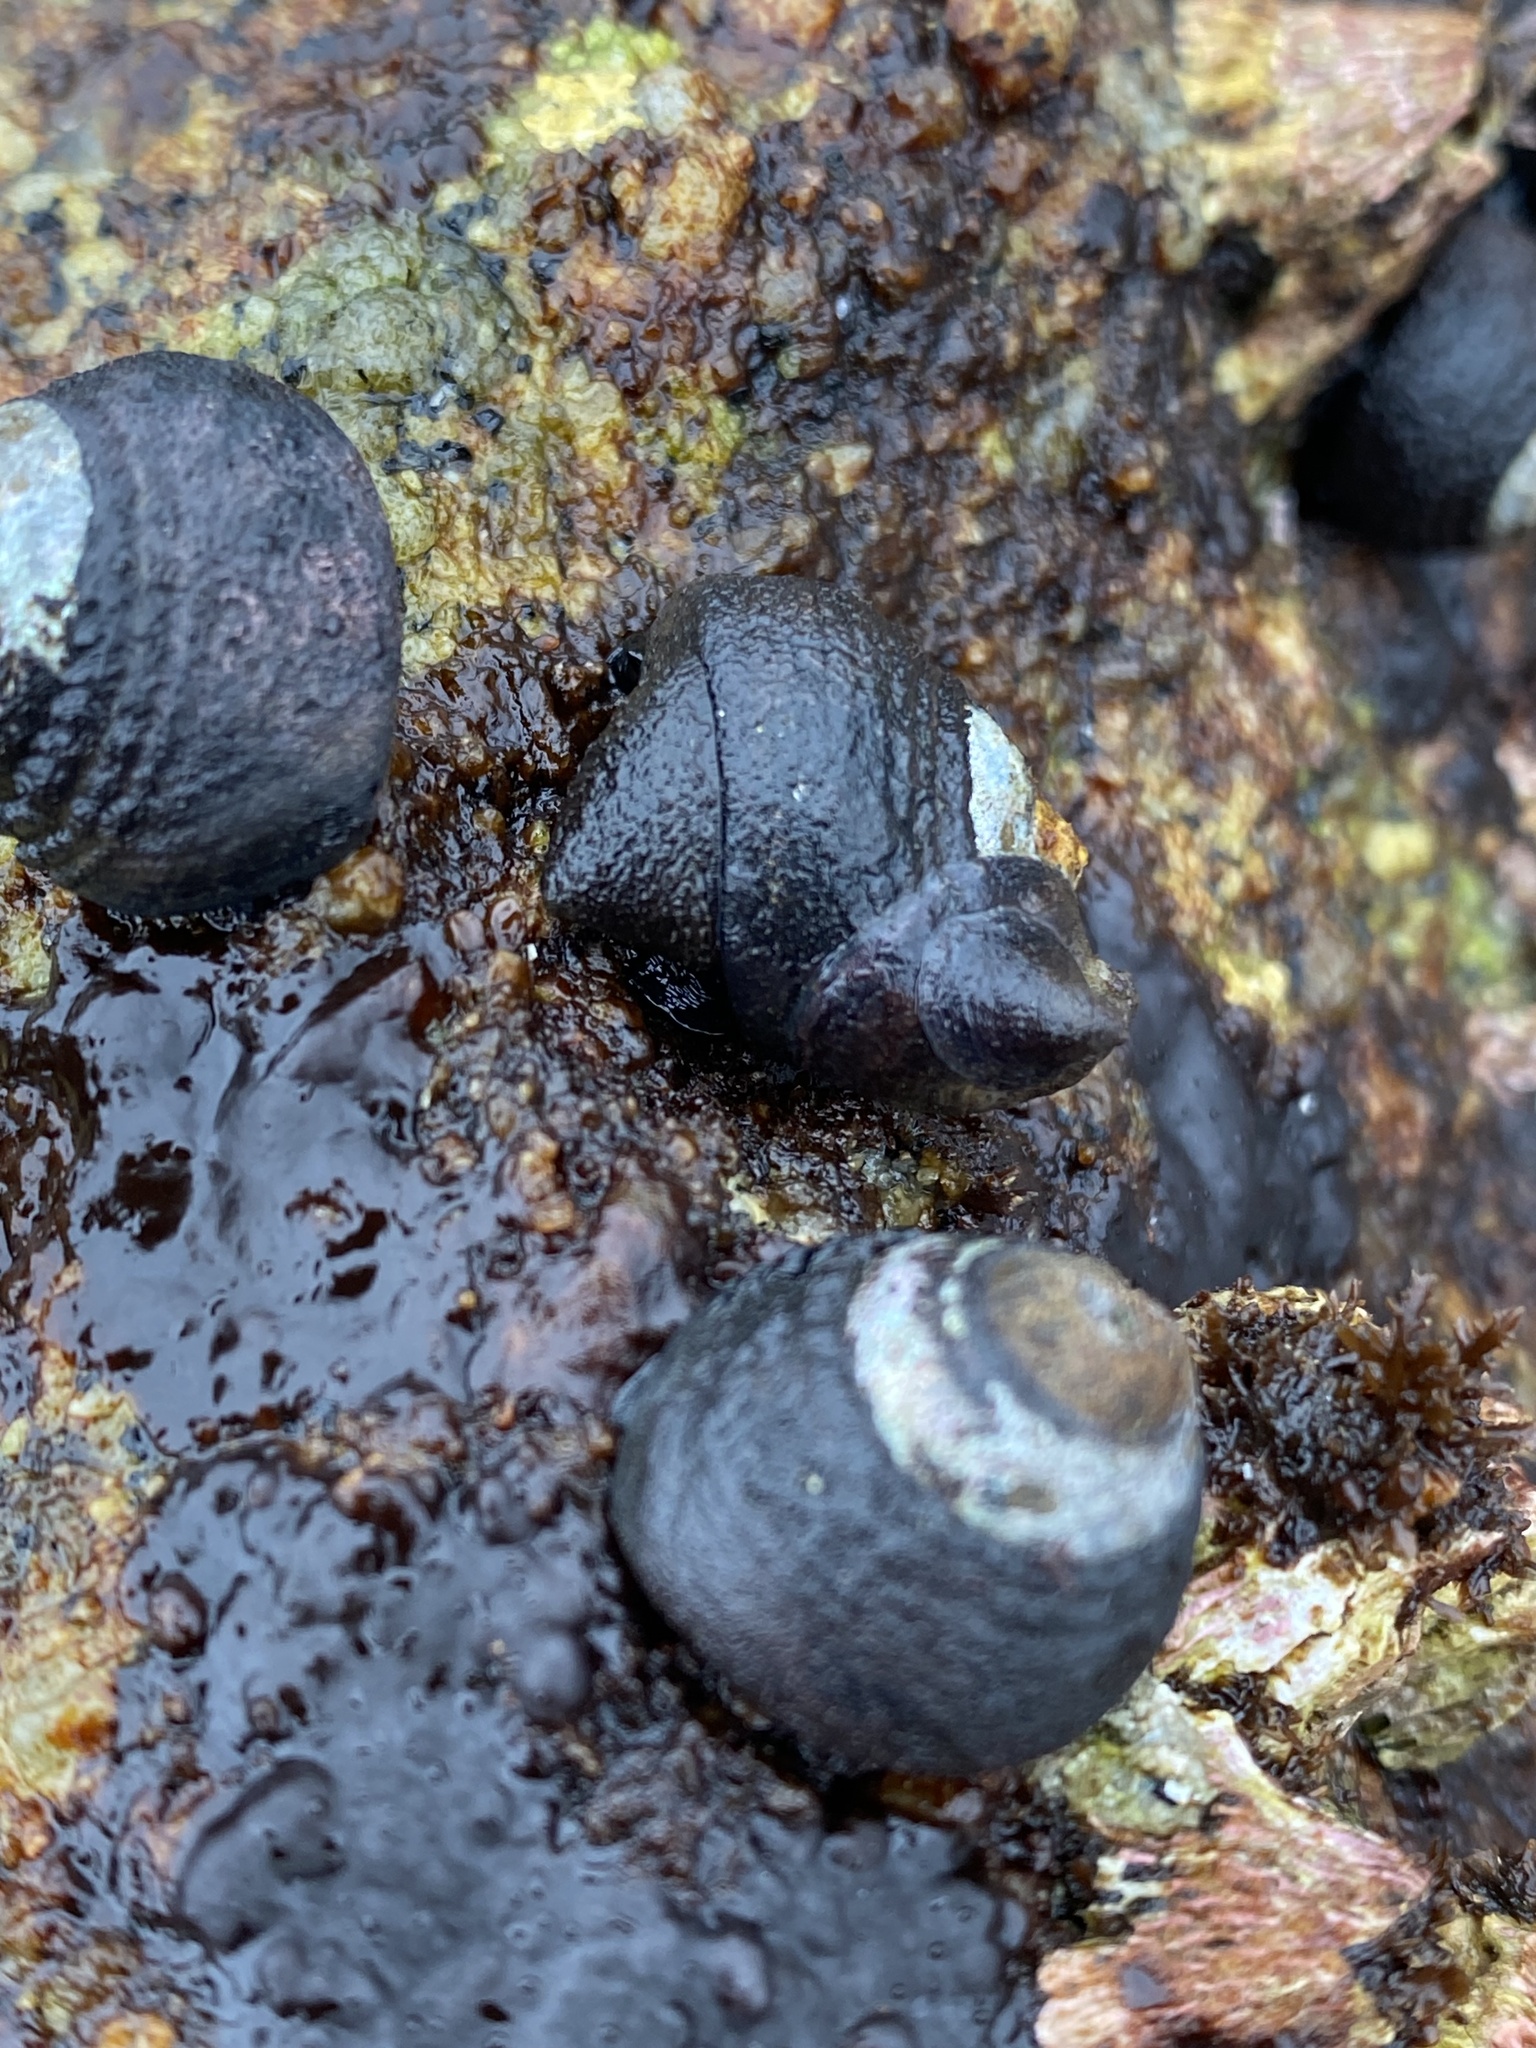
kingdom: Animalia
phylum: Mollusca
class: Gastropoda
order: Littorinimorpha
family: Calyptraeidae
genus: Crepidula
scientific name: Crepidula adunca
